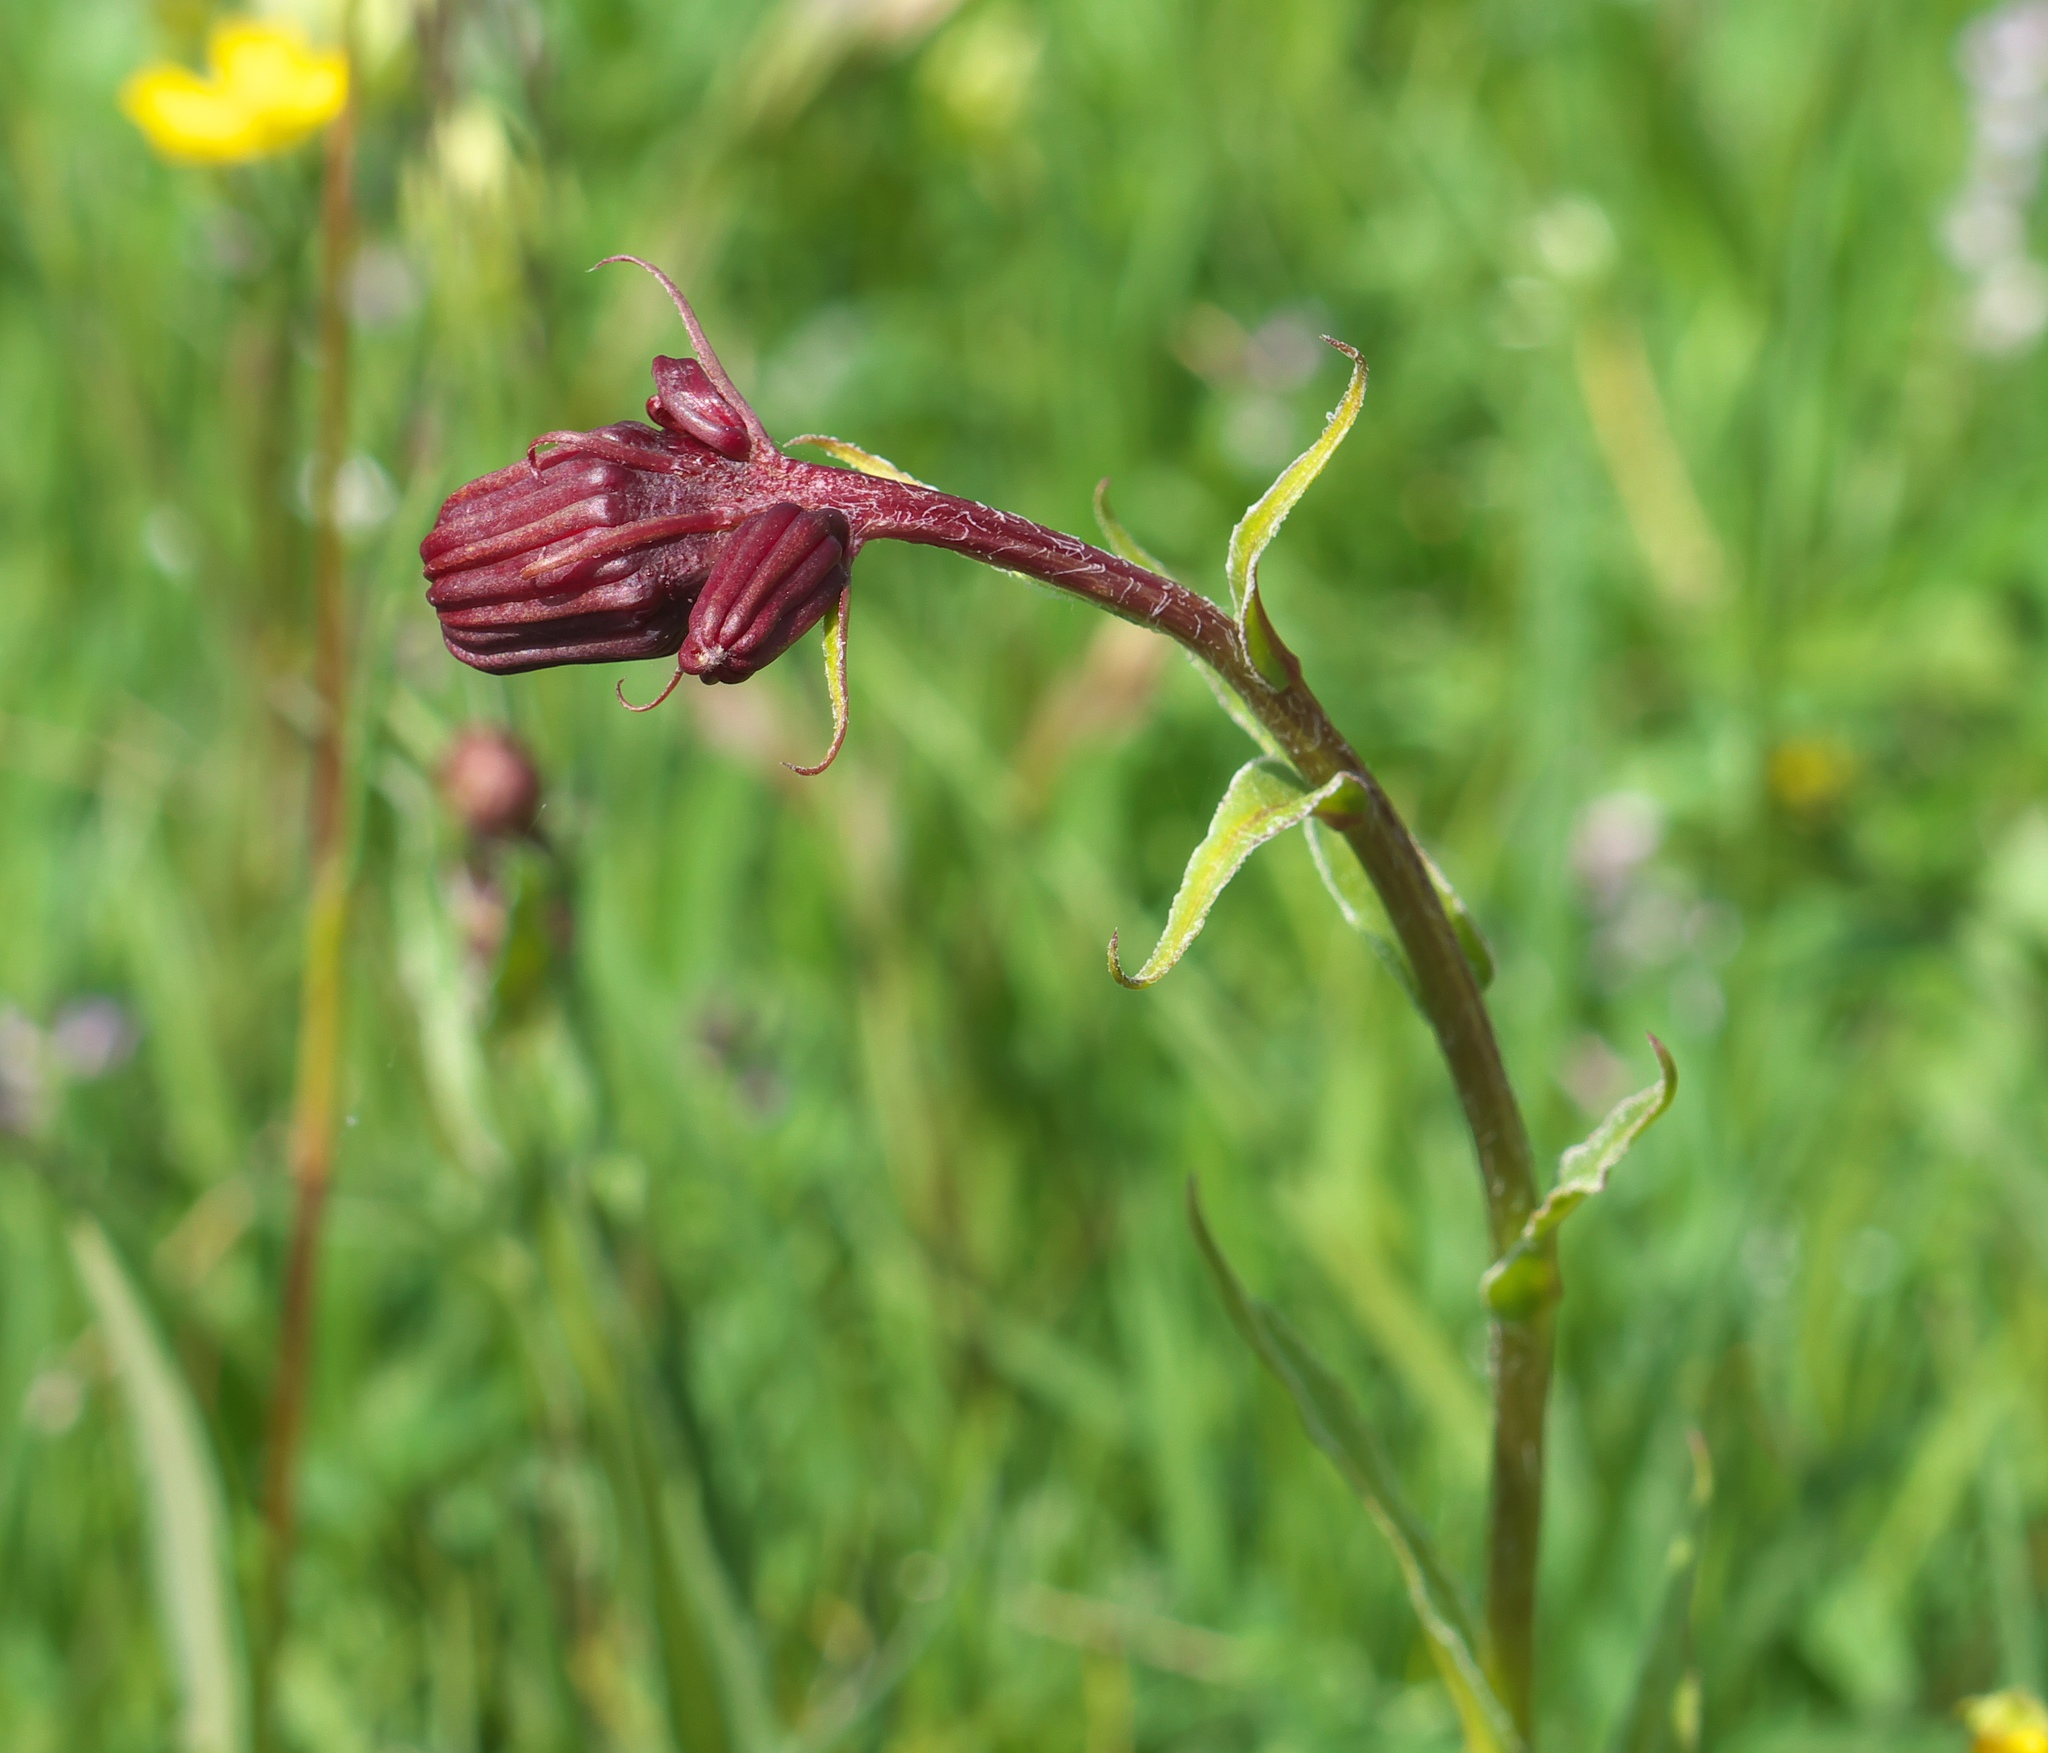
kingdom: Plantae
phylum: Tracheophyta
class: Magnoliopsida
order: Asterales
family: Asteraceae
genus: Senecio
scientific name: Senecio bigelovii
